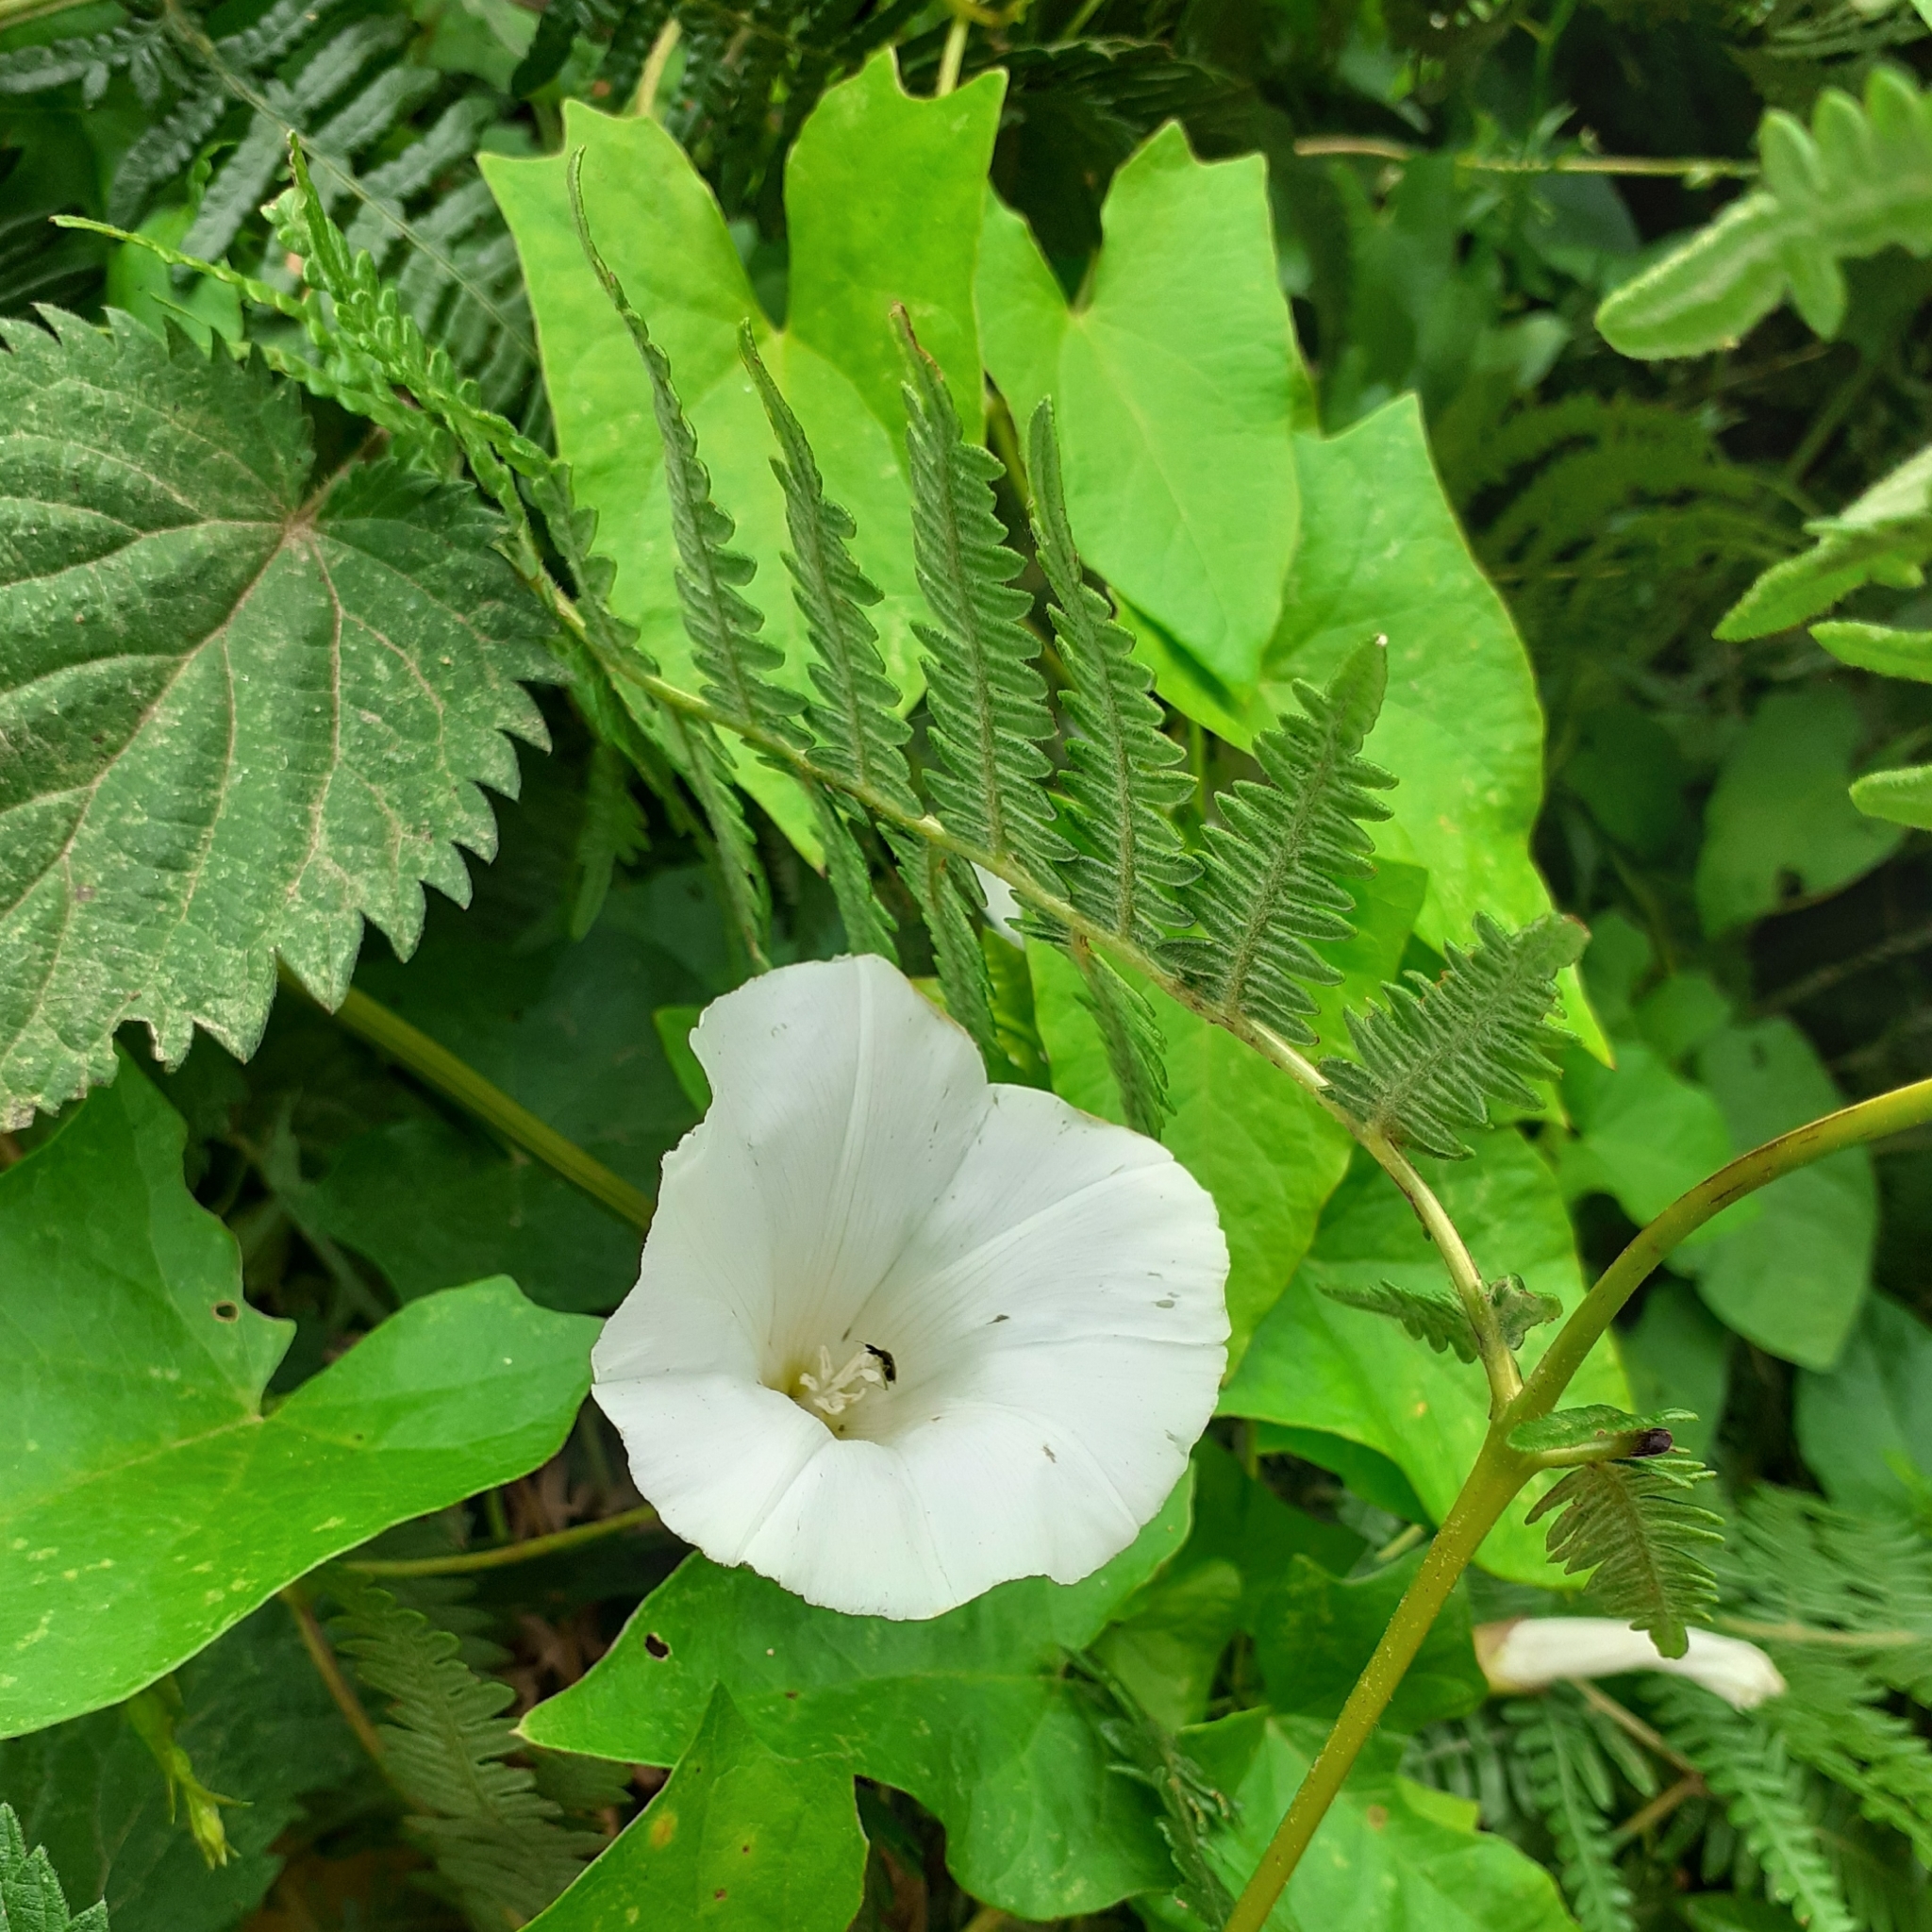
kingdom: Plantae
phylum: Tracheophyta
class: Magnoliopsida
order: Solanales
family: Convolvulaceae
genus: Calystegia
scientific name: Calystegia sepium
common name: Hedge bindweed
